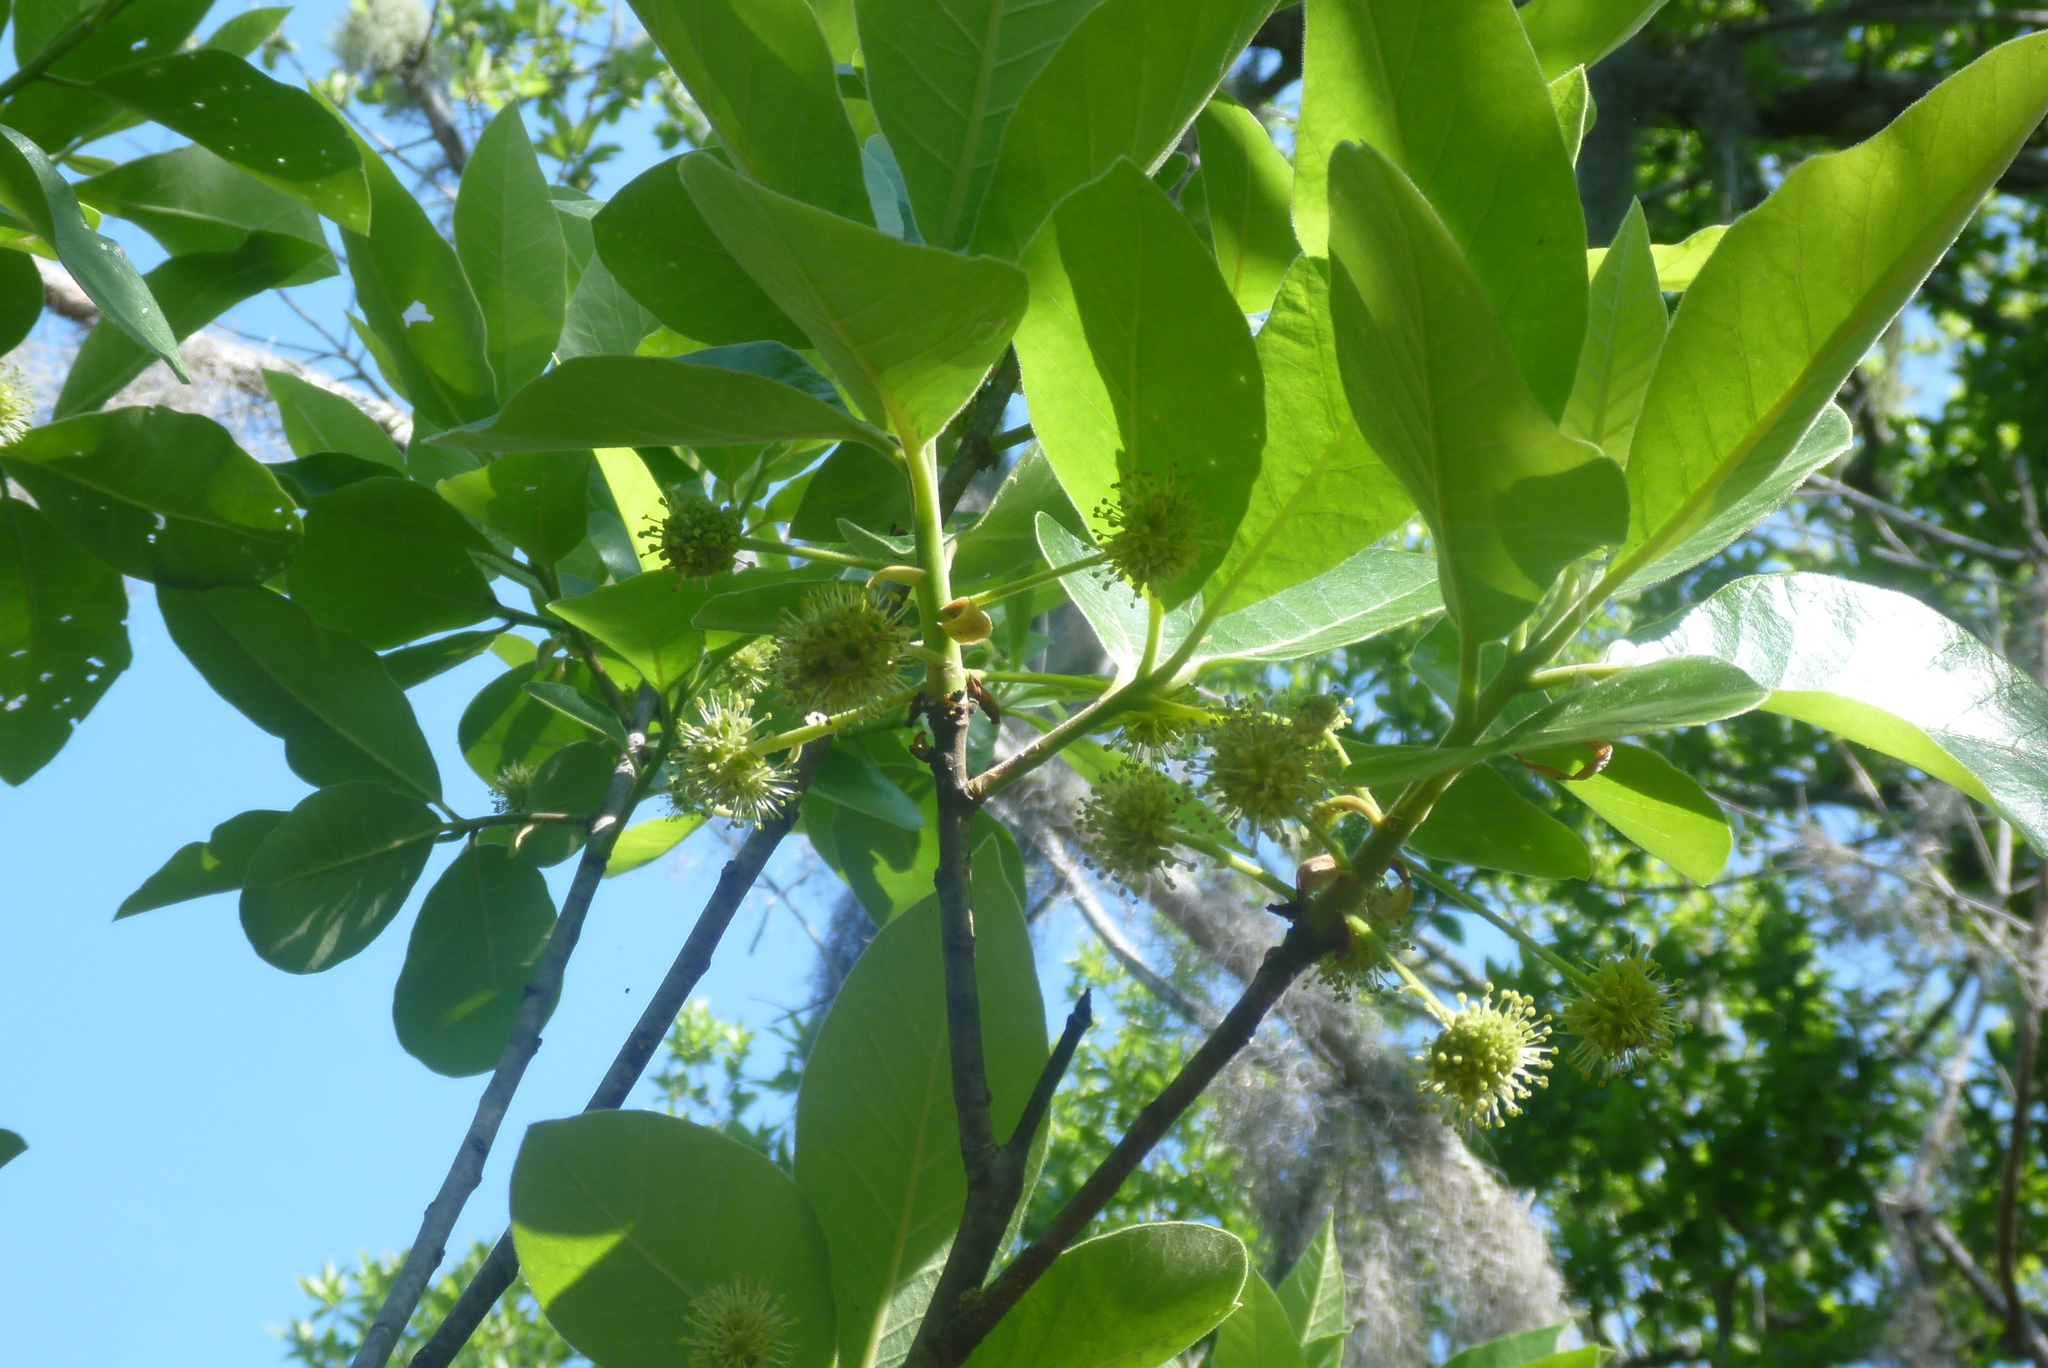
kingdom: Plantae
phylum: Tracheophyta
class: Magnoliopsida
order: Cornales
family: Nyssaceae
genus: Nyssa
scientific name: Nyssa ogeche
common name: Ogeechee tupelo
